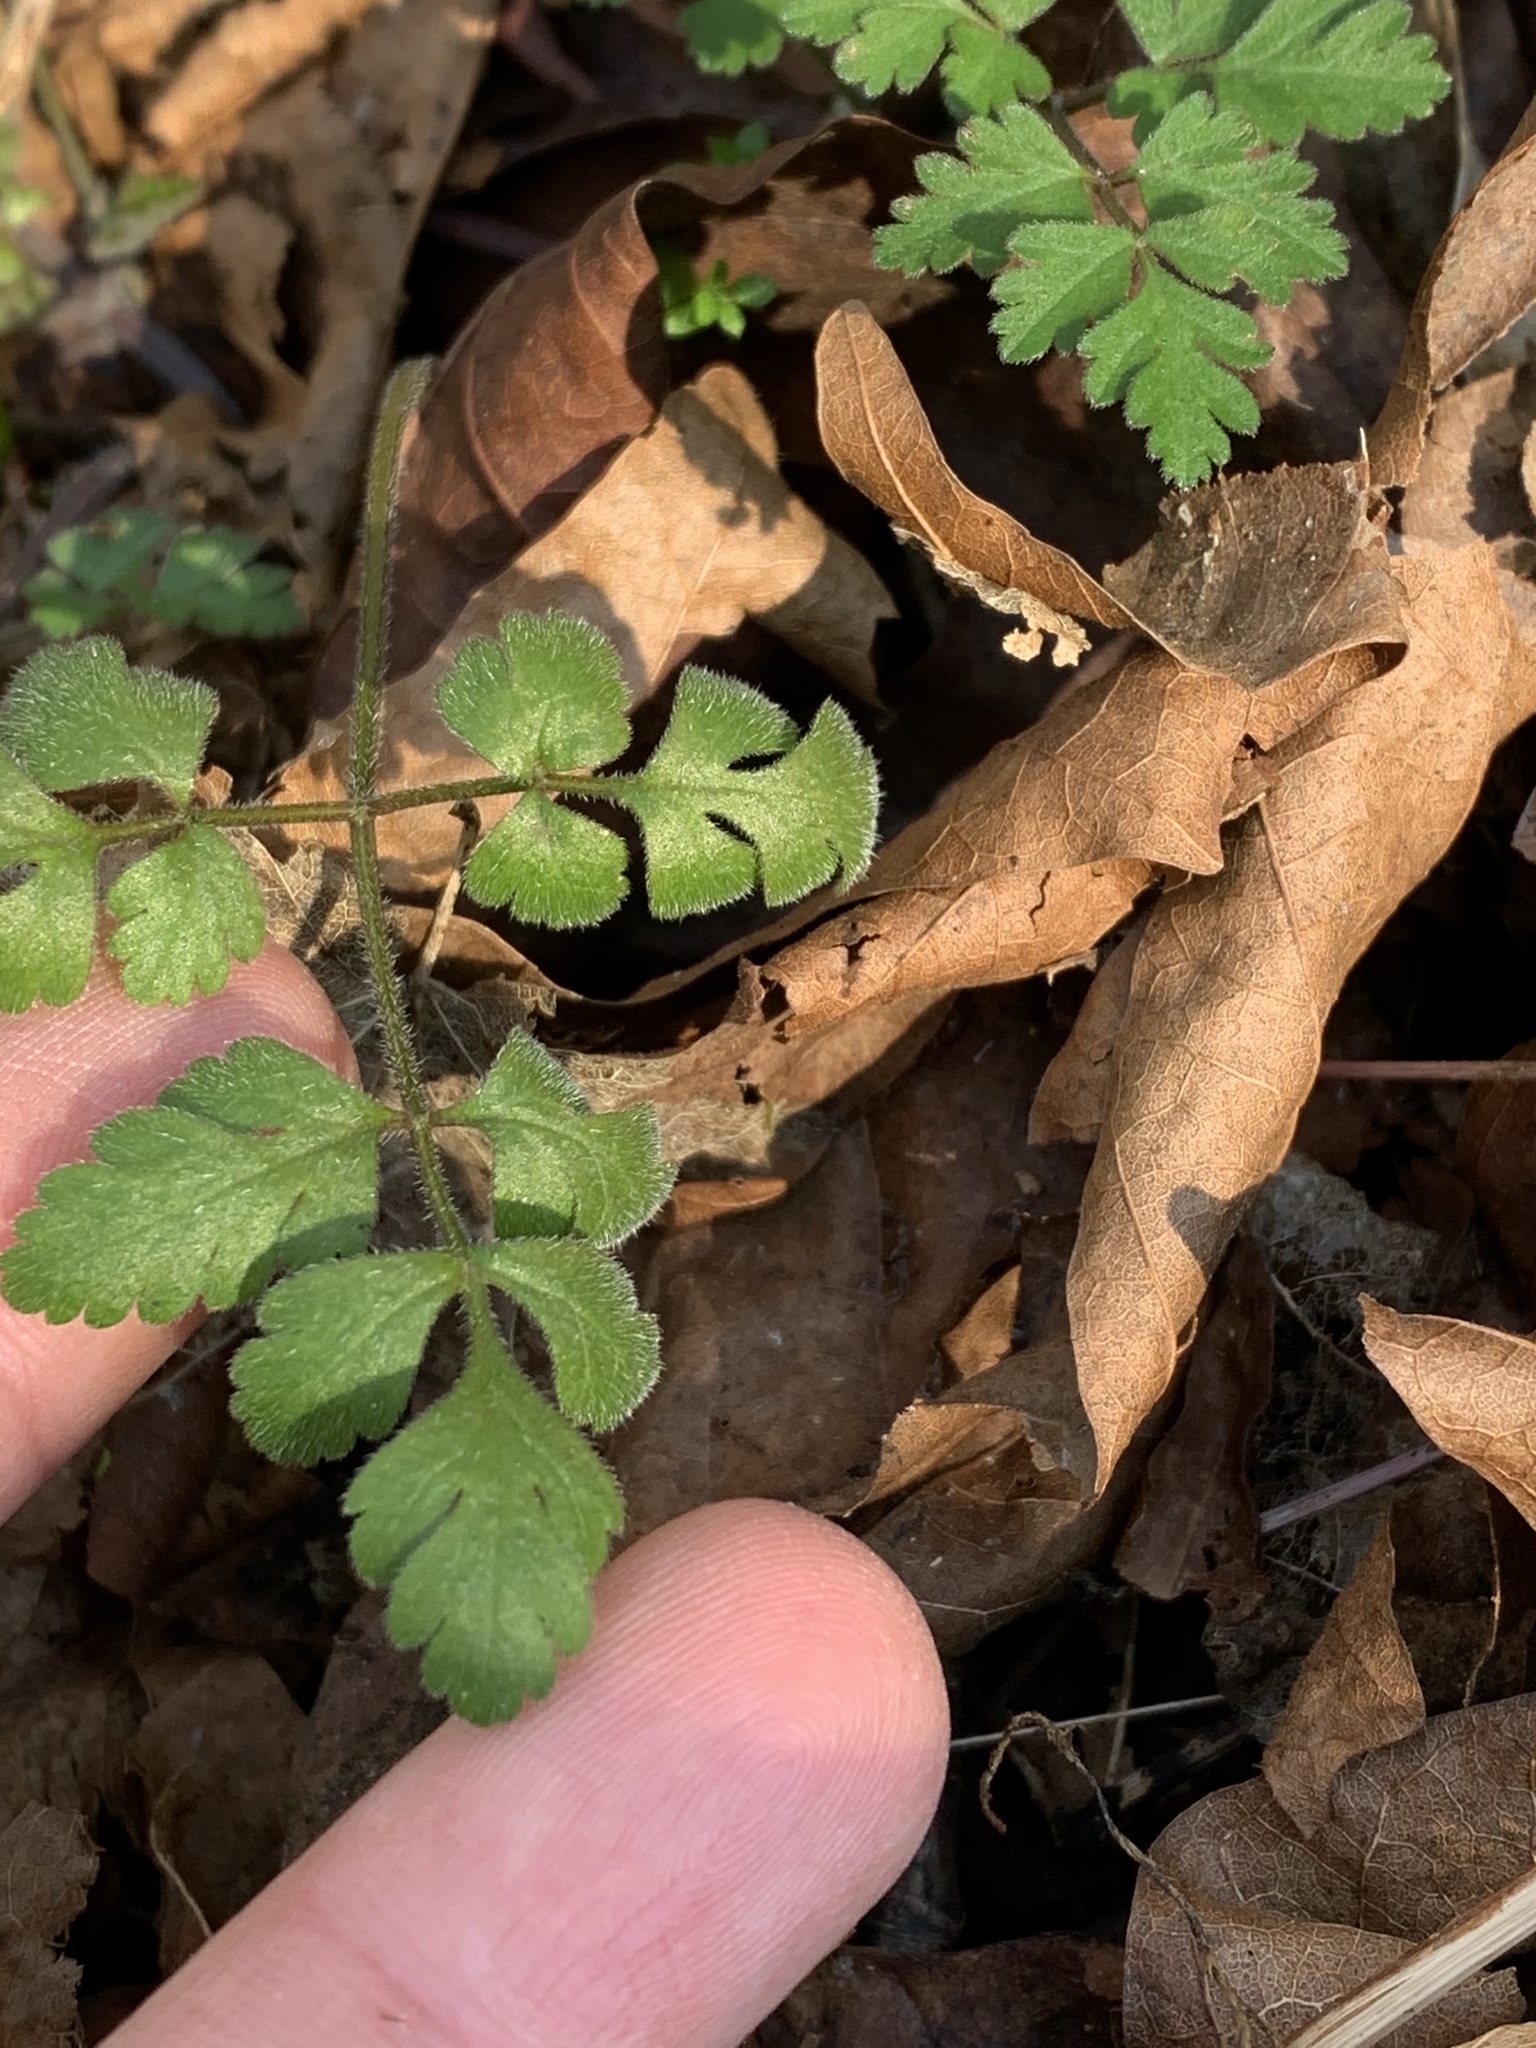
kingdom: Plantae
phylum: Tracheophyta
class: Magnoliopsida
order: Apiales
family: Apiaceae
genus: Chaerophyllum
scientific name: Chaerophyllum temulum
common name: Rough chervil
